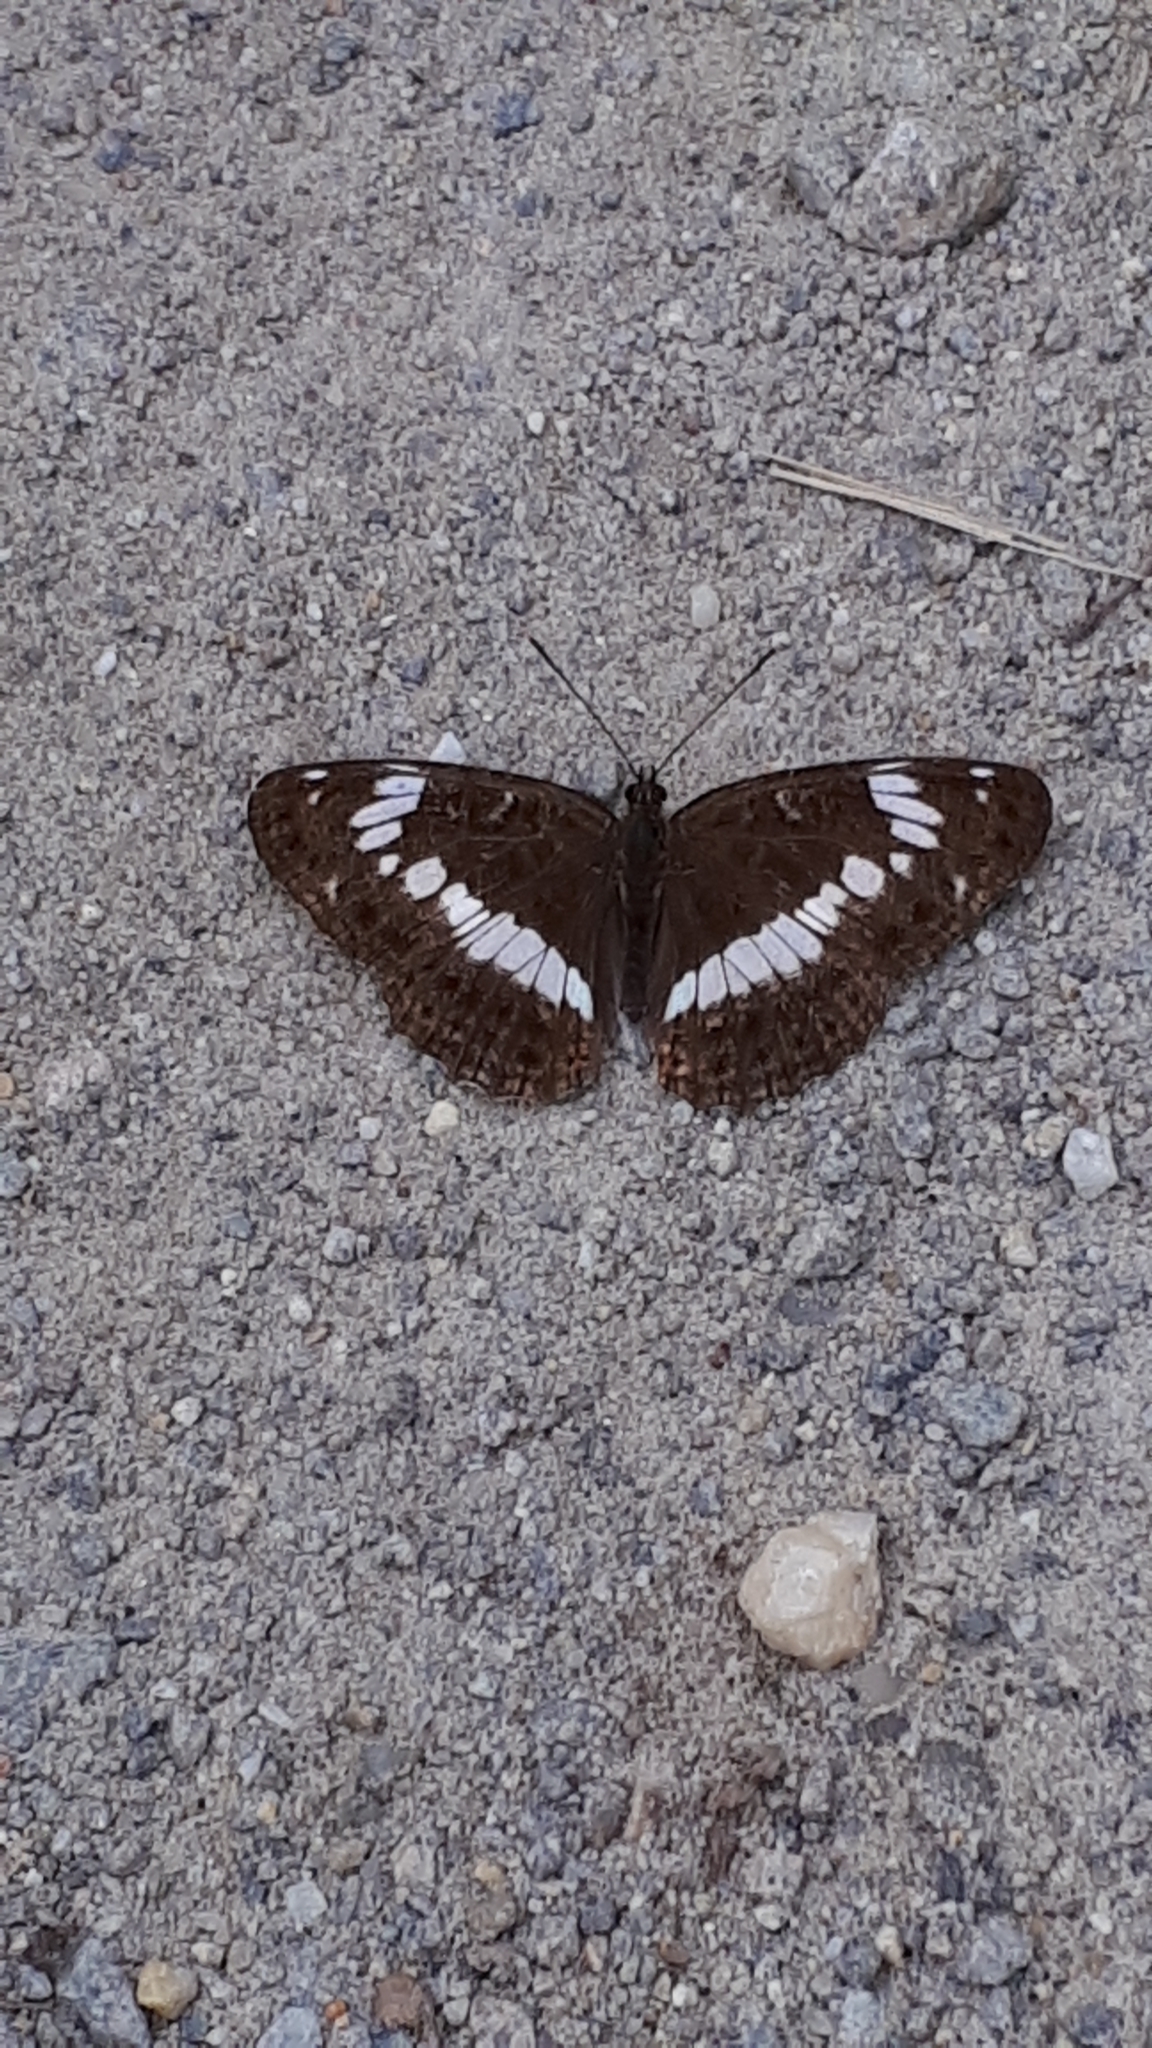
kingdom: Animalia
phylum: Arthropoda
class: Insecta
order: Lepidoptera
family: Nymphalidae
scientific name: Nymphalidae
